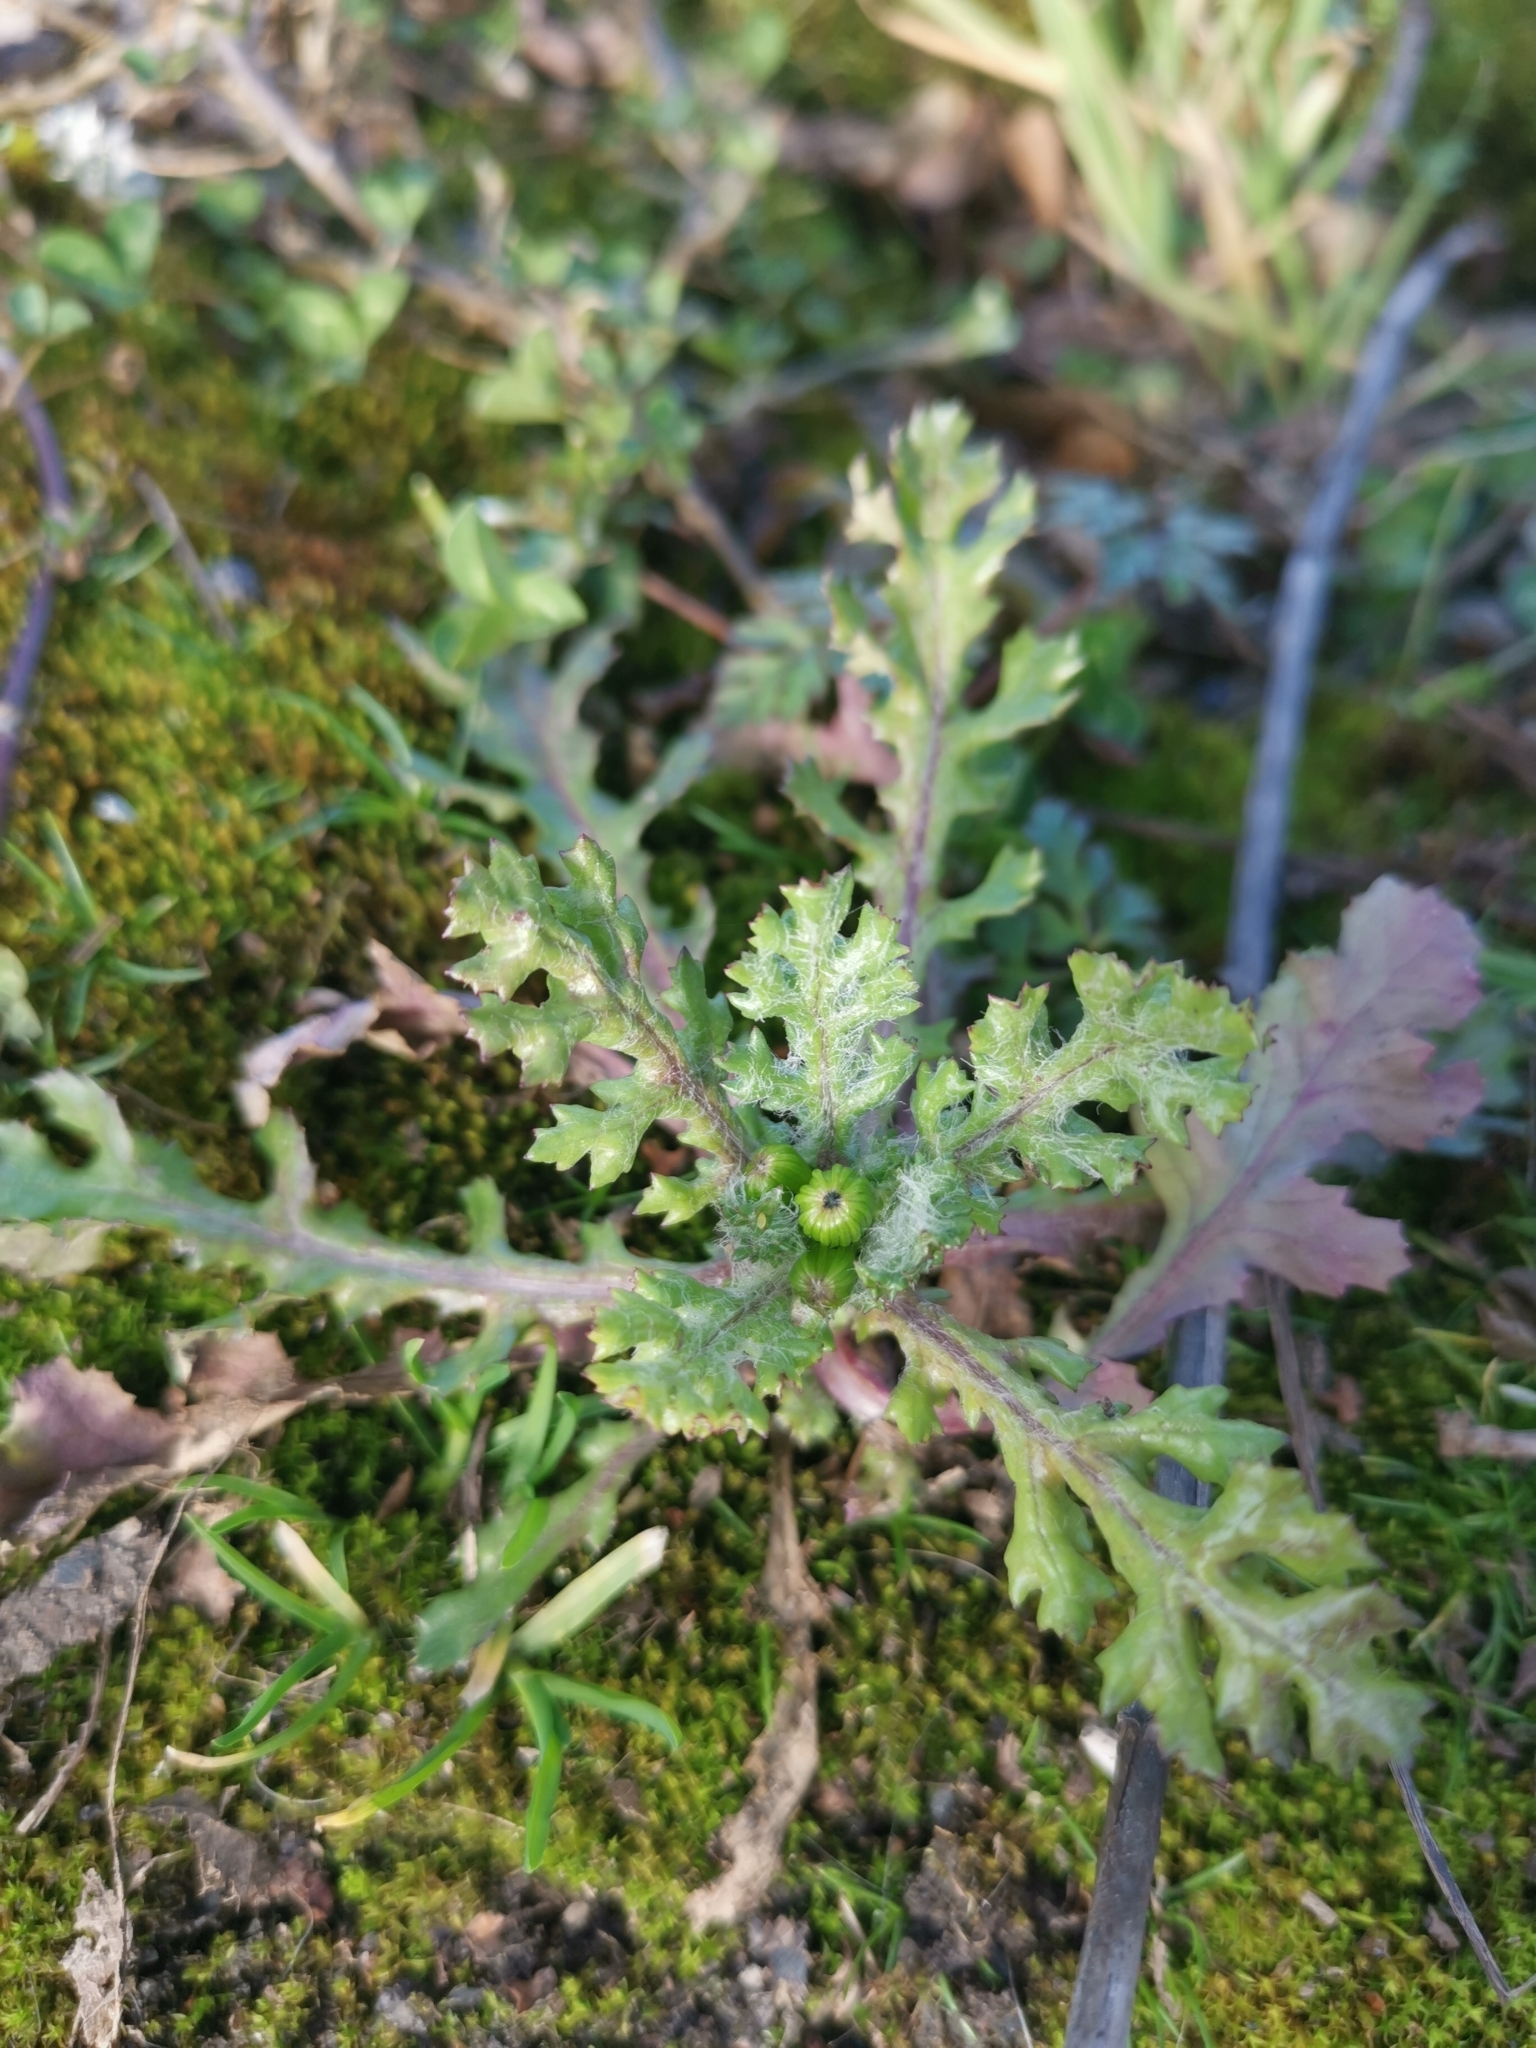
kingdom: Plantae
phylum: Tracheophyta
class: Magnoliopsida
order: Asterales
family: Asteraceae
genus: Senecio
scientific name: Senecio vulgaris
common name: Old-man-in-the-spring
